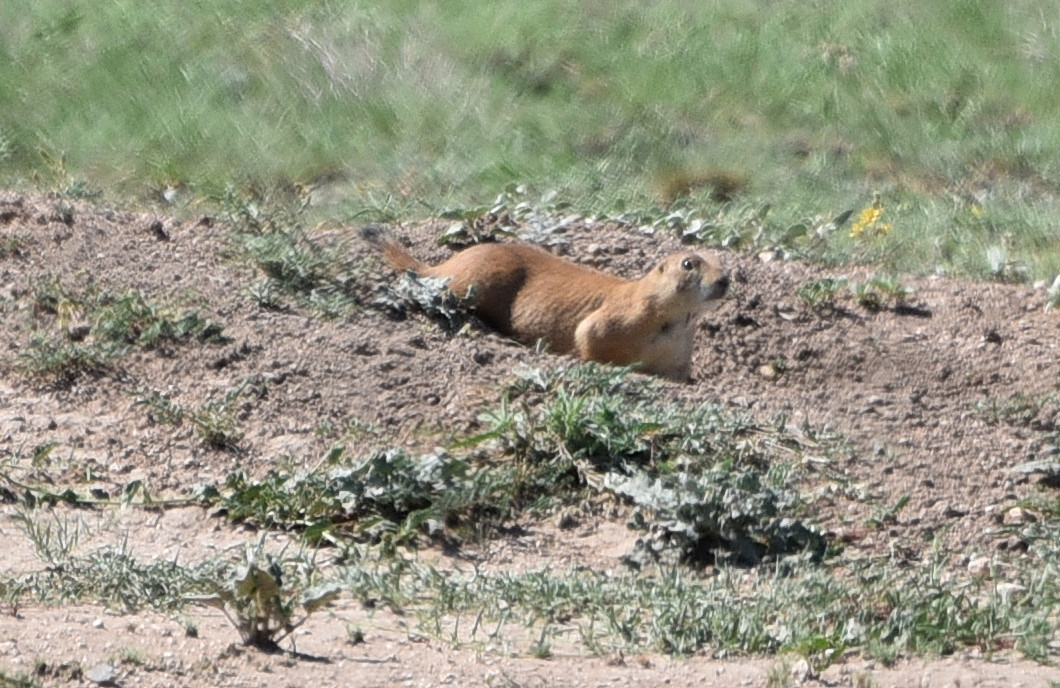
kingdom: Animalia
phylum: Chordata
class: Mammalia
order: Rodentia
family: Sciuridae
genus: Cynomys
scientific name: Cynomys ludovicianus
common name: Black-tailed prairie dog
